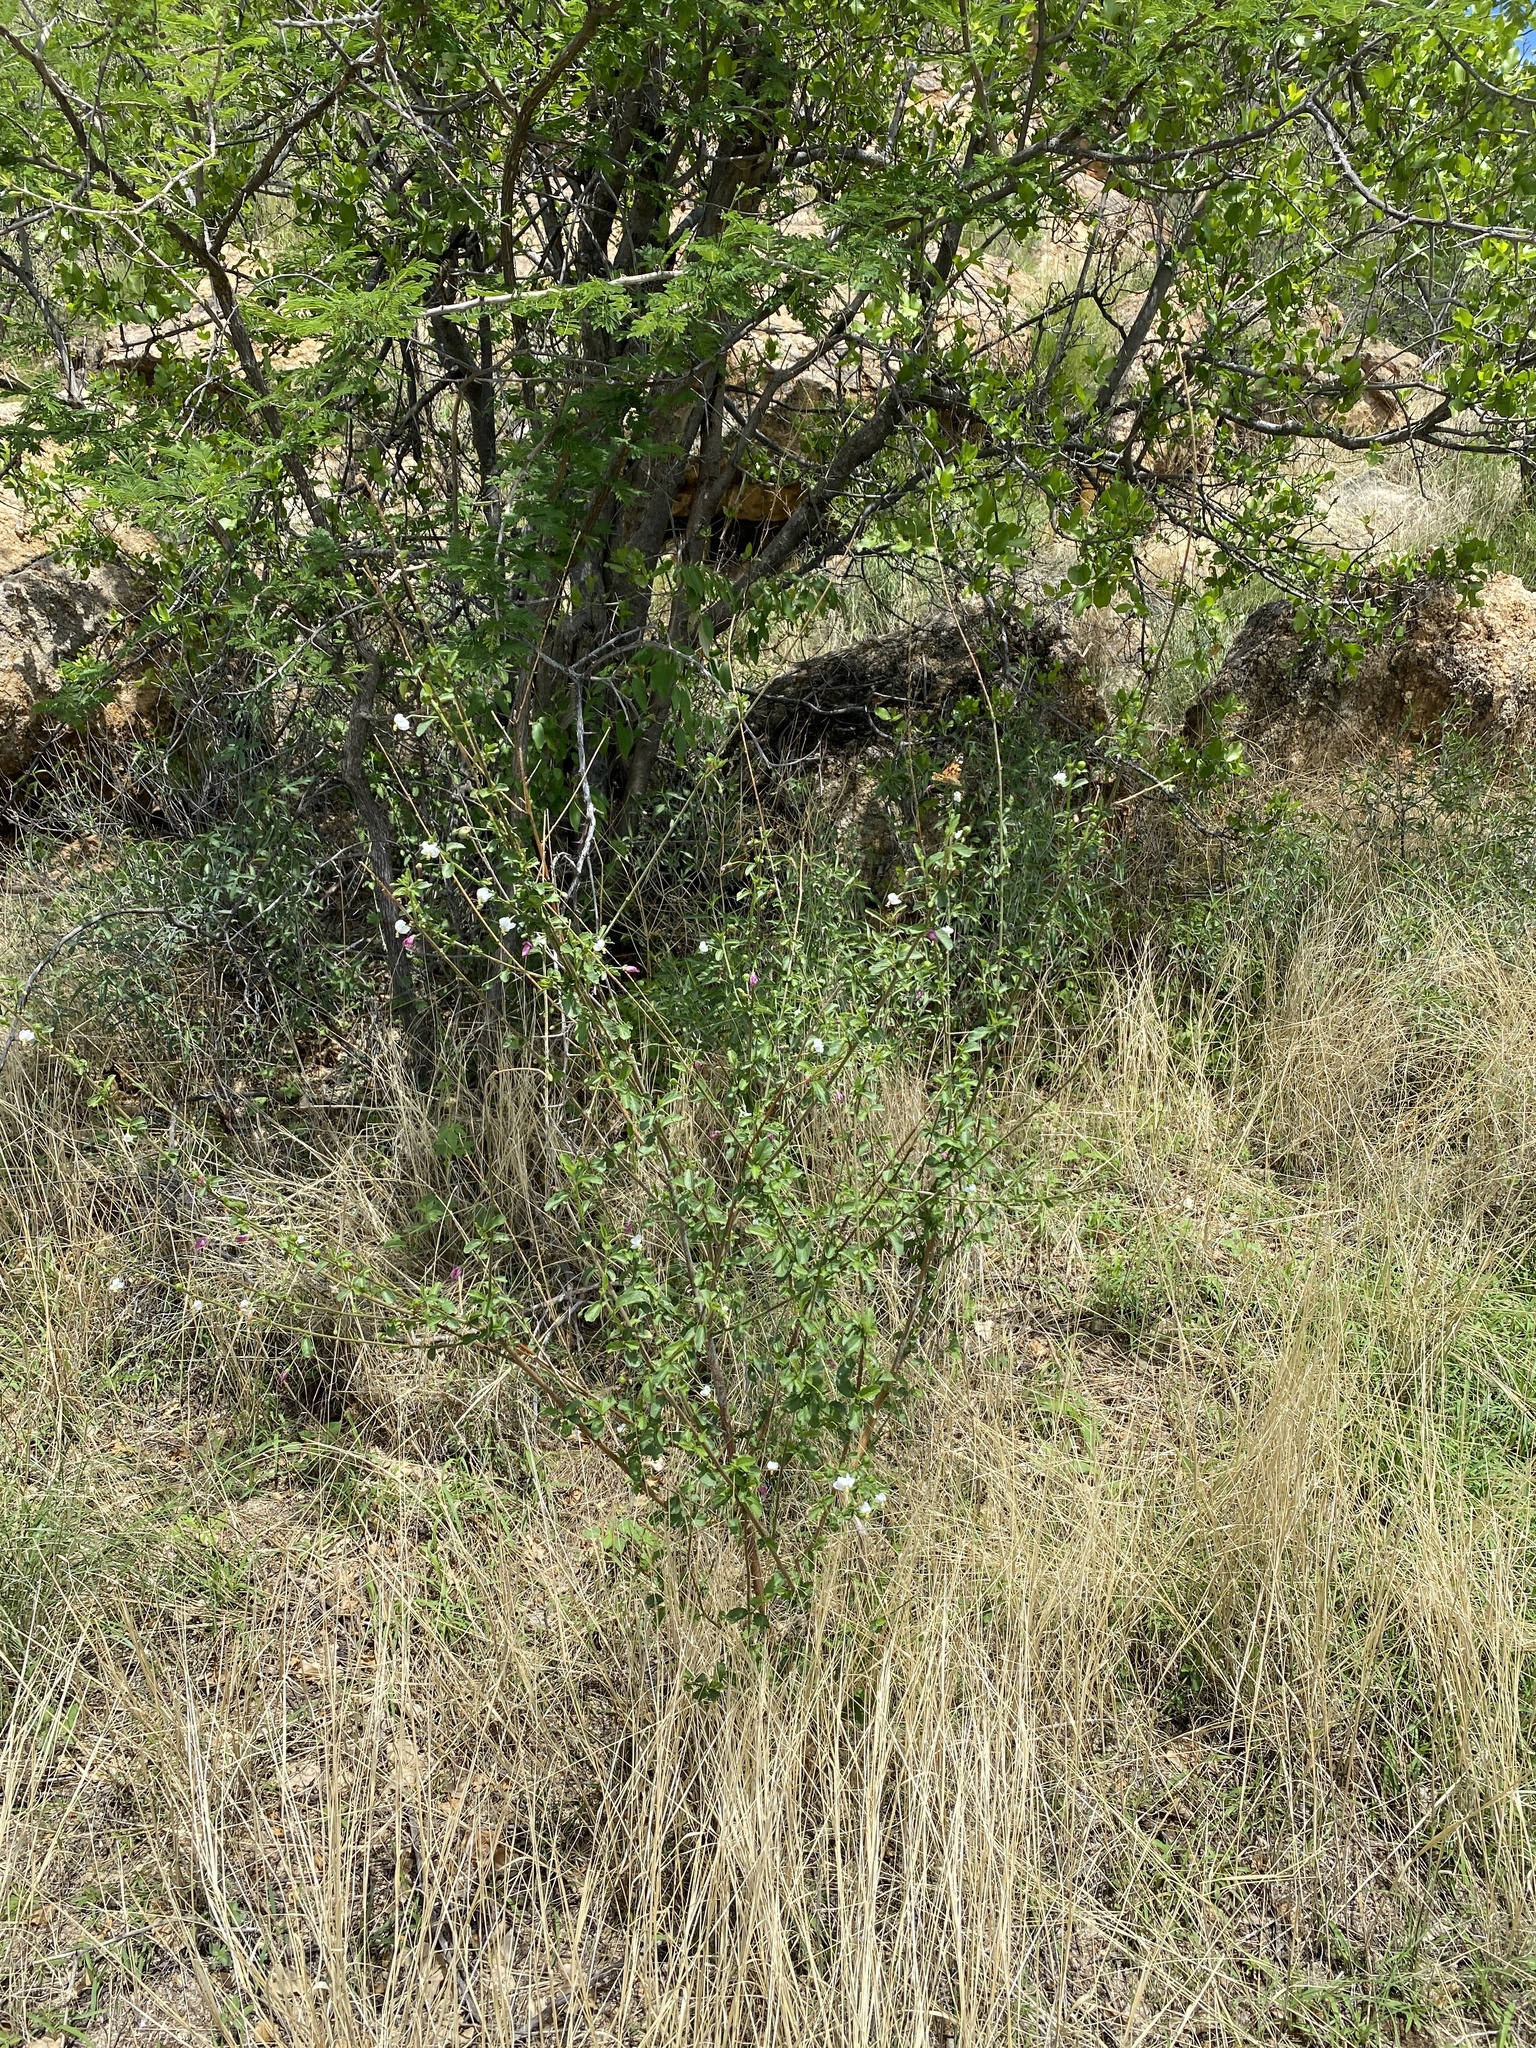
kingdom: Plantae
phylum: Tracheophyta
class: Magnoliopsida
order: Malvales
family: Malvaceae
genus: Hibiscus
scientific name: Hibiscus micranthus
